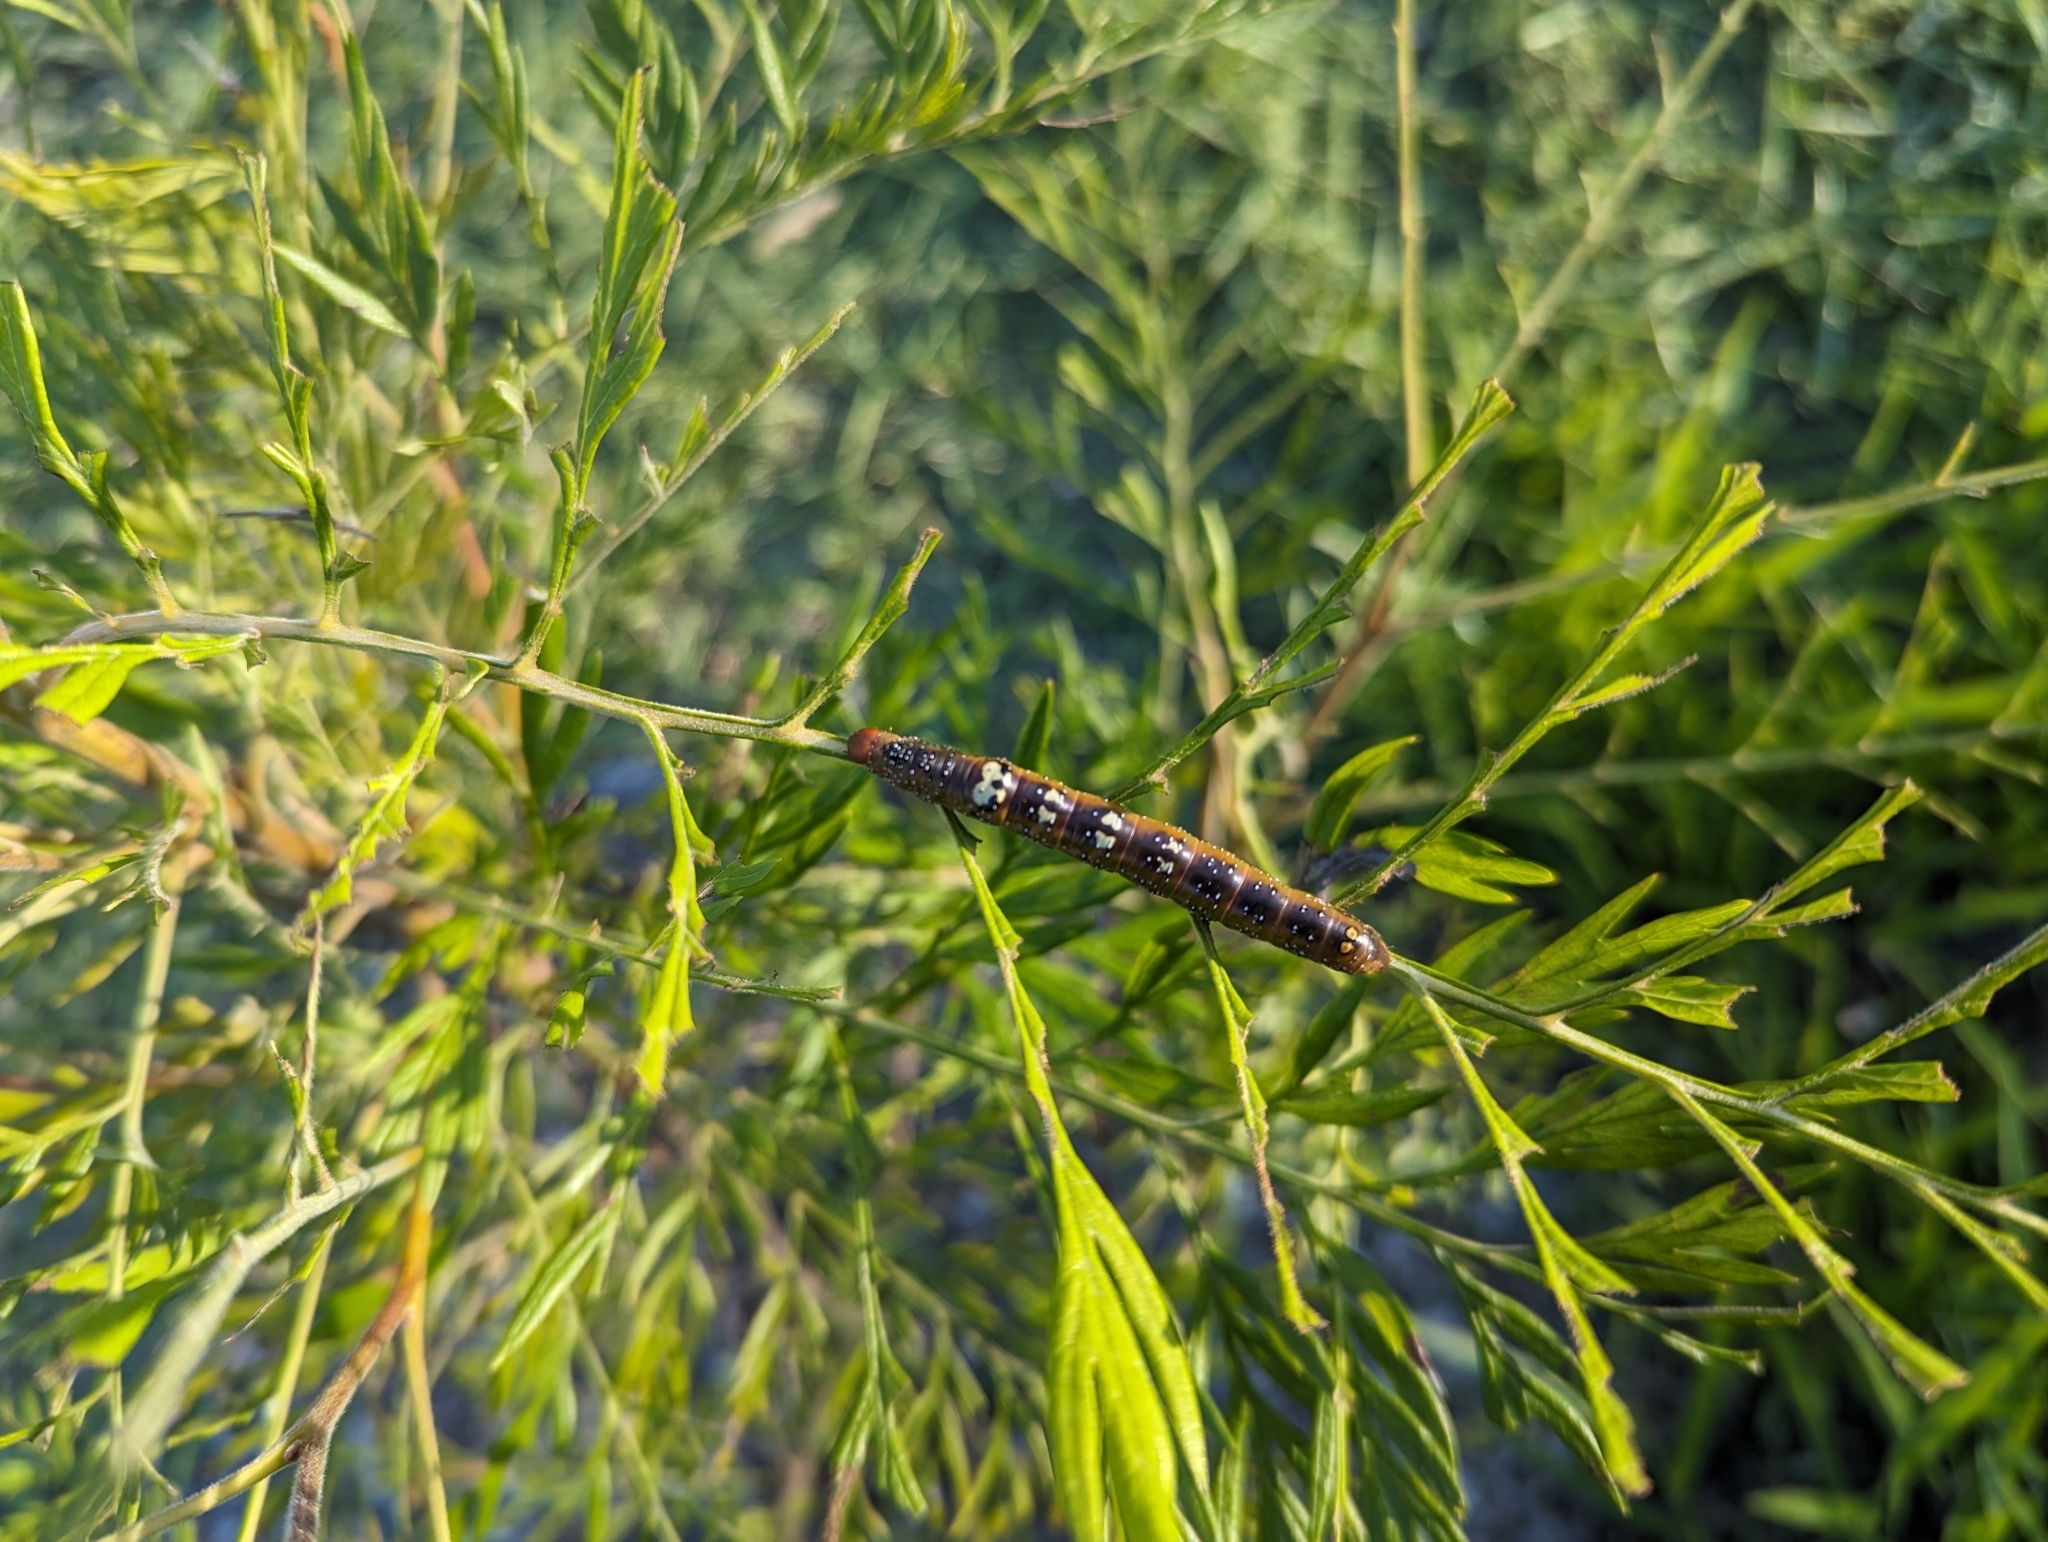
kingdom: Animalia
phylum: Arthropoda
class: Insecta
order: Lepidoptera
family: Geometridae
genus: Oenochroma
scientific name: Oenochroma vinaria
